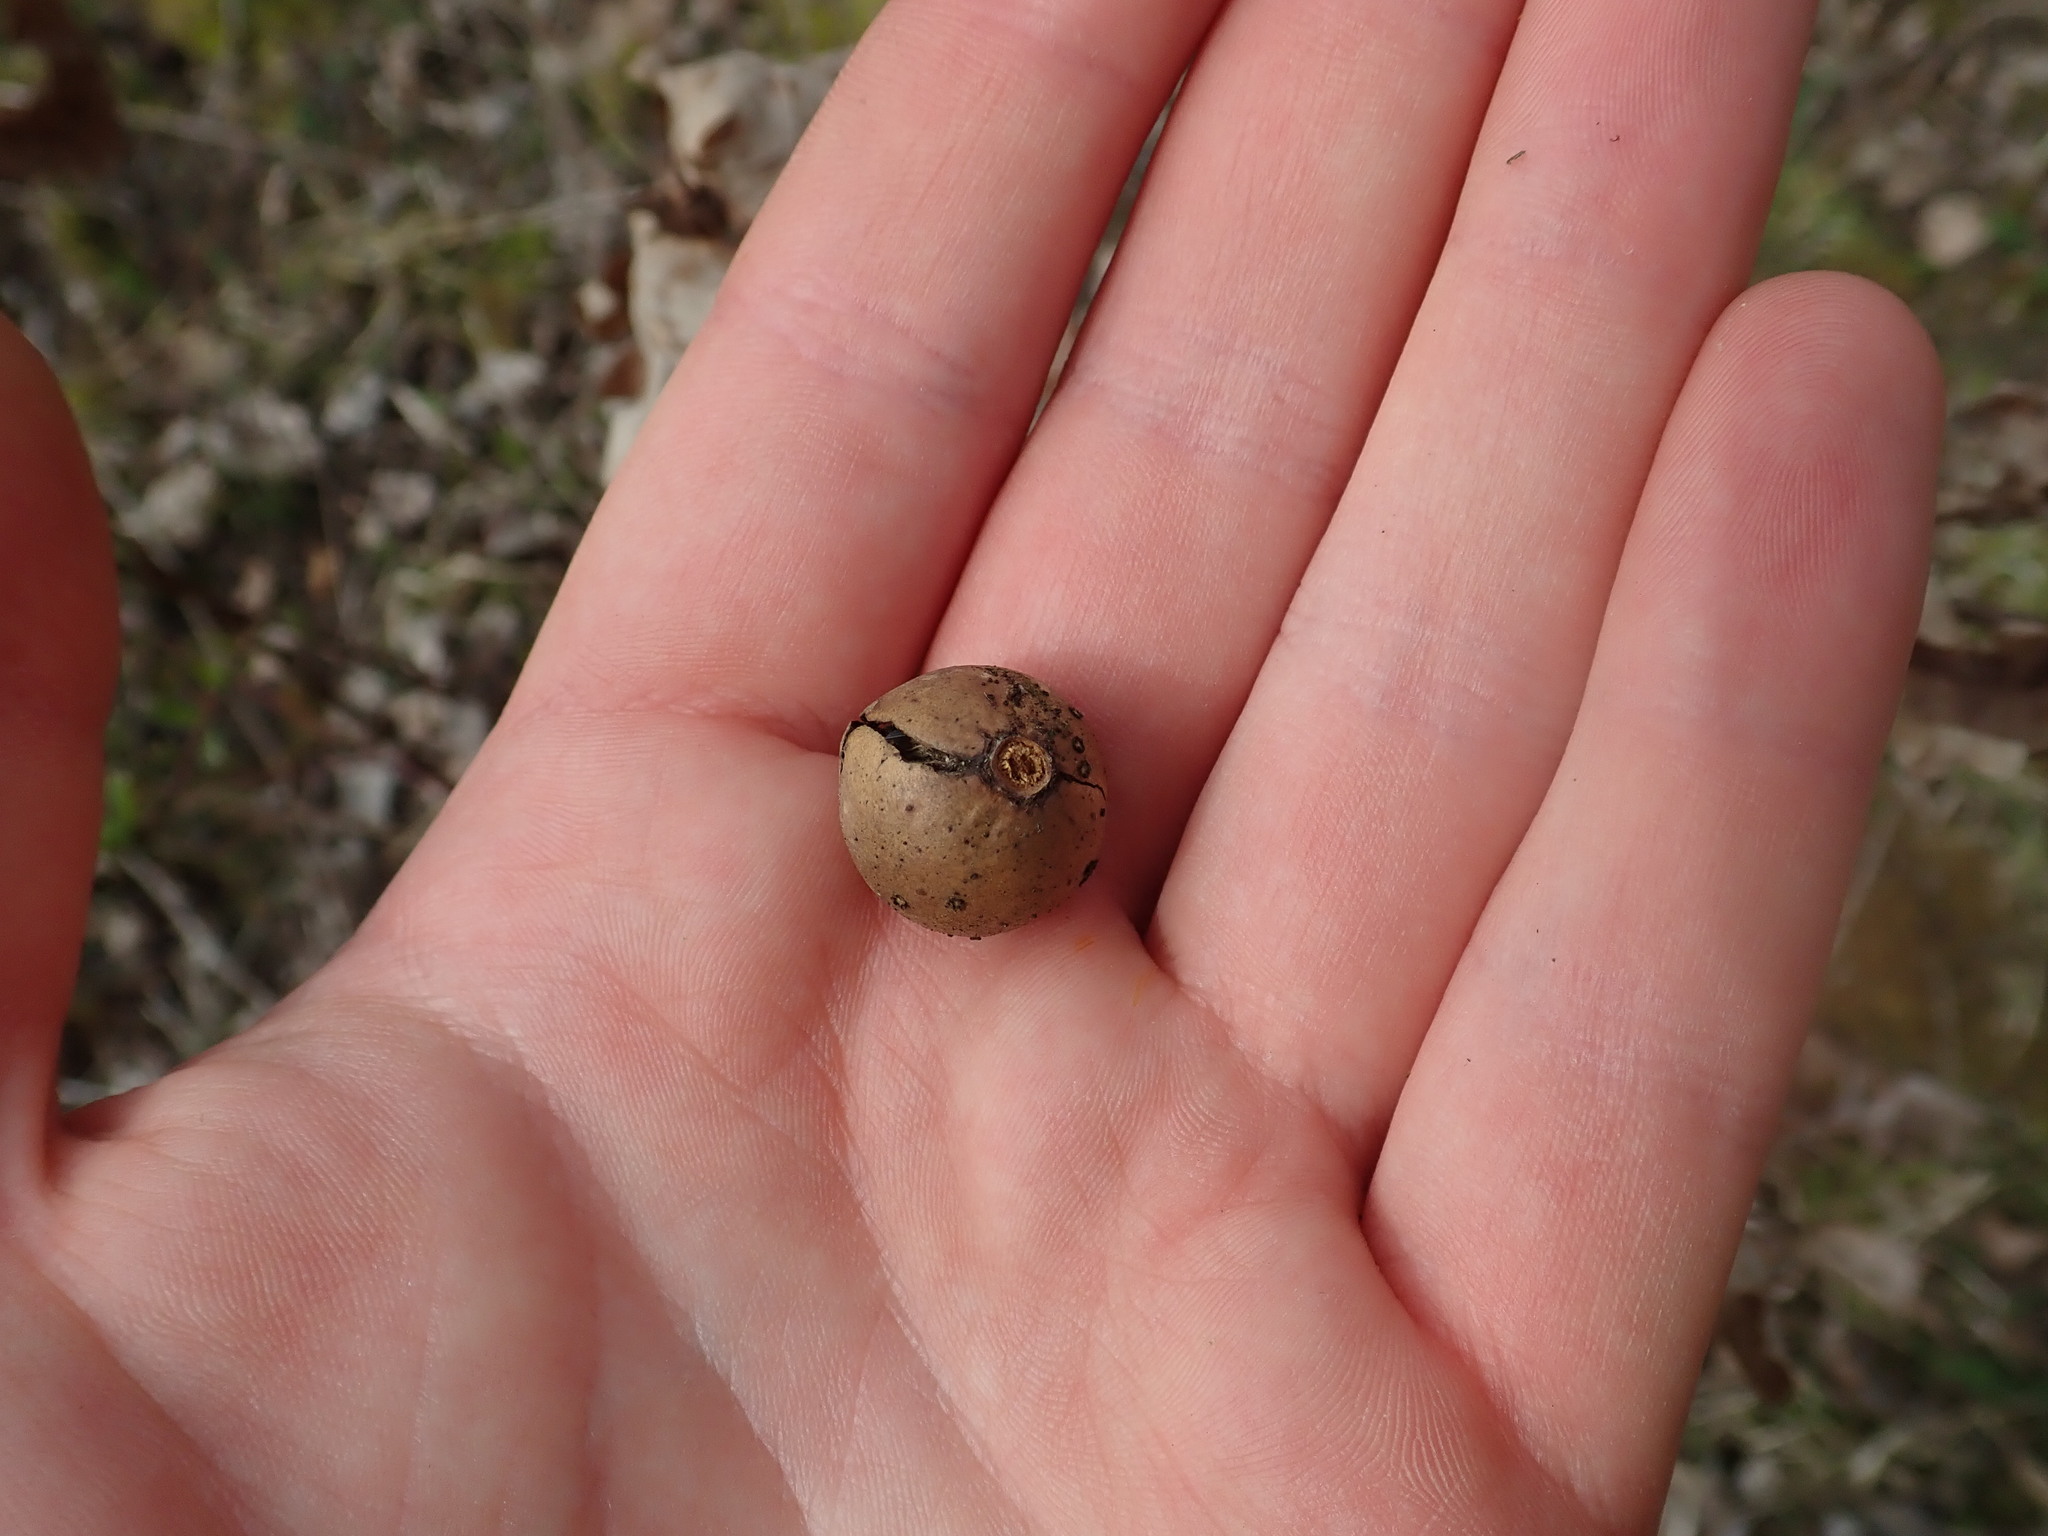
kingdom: Animalia
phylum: Arthropoda
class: Insecta
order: Hymenoptera
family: Cynipidae
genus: Andricus
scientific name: Andricus kollari
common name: Marble gall
